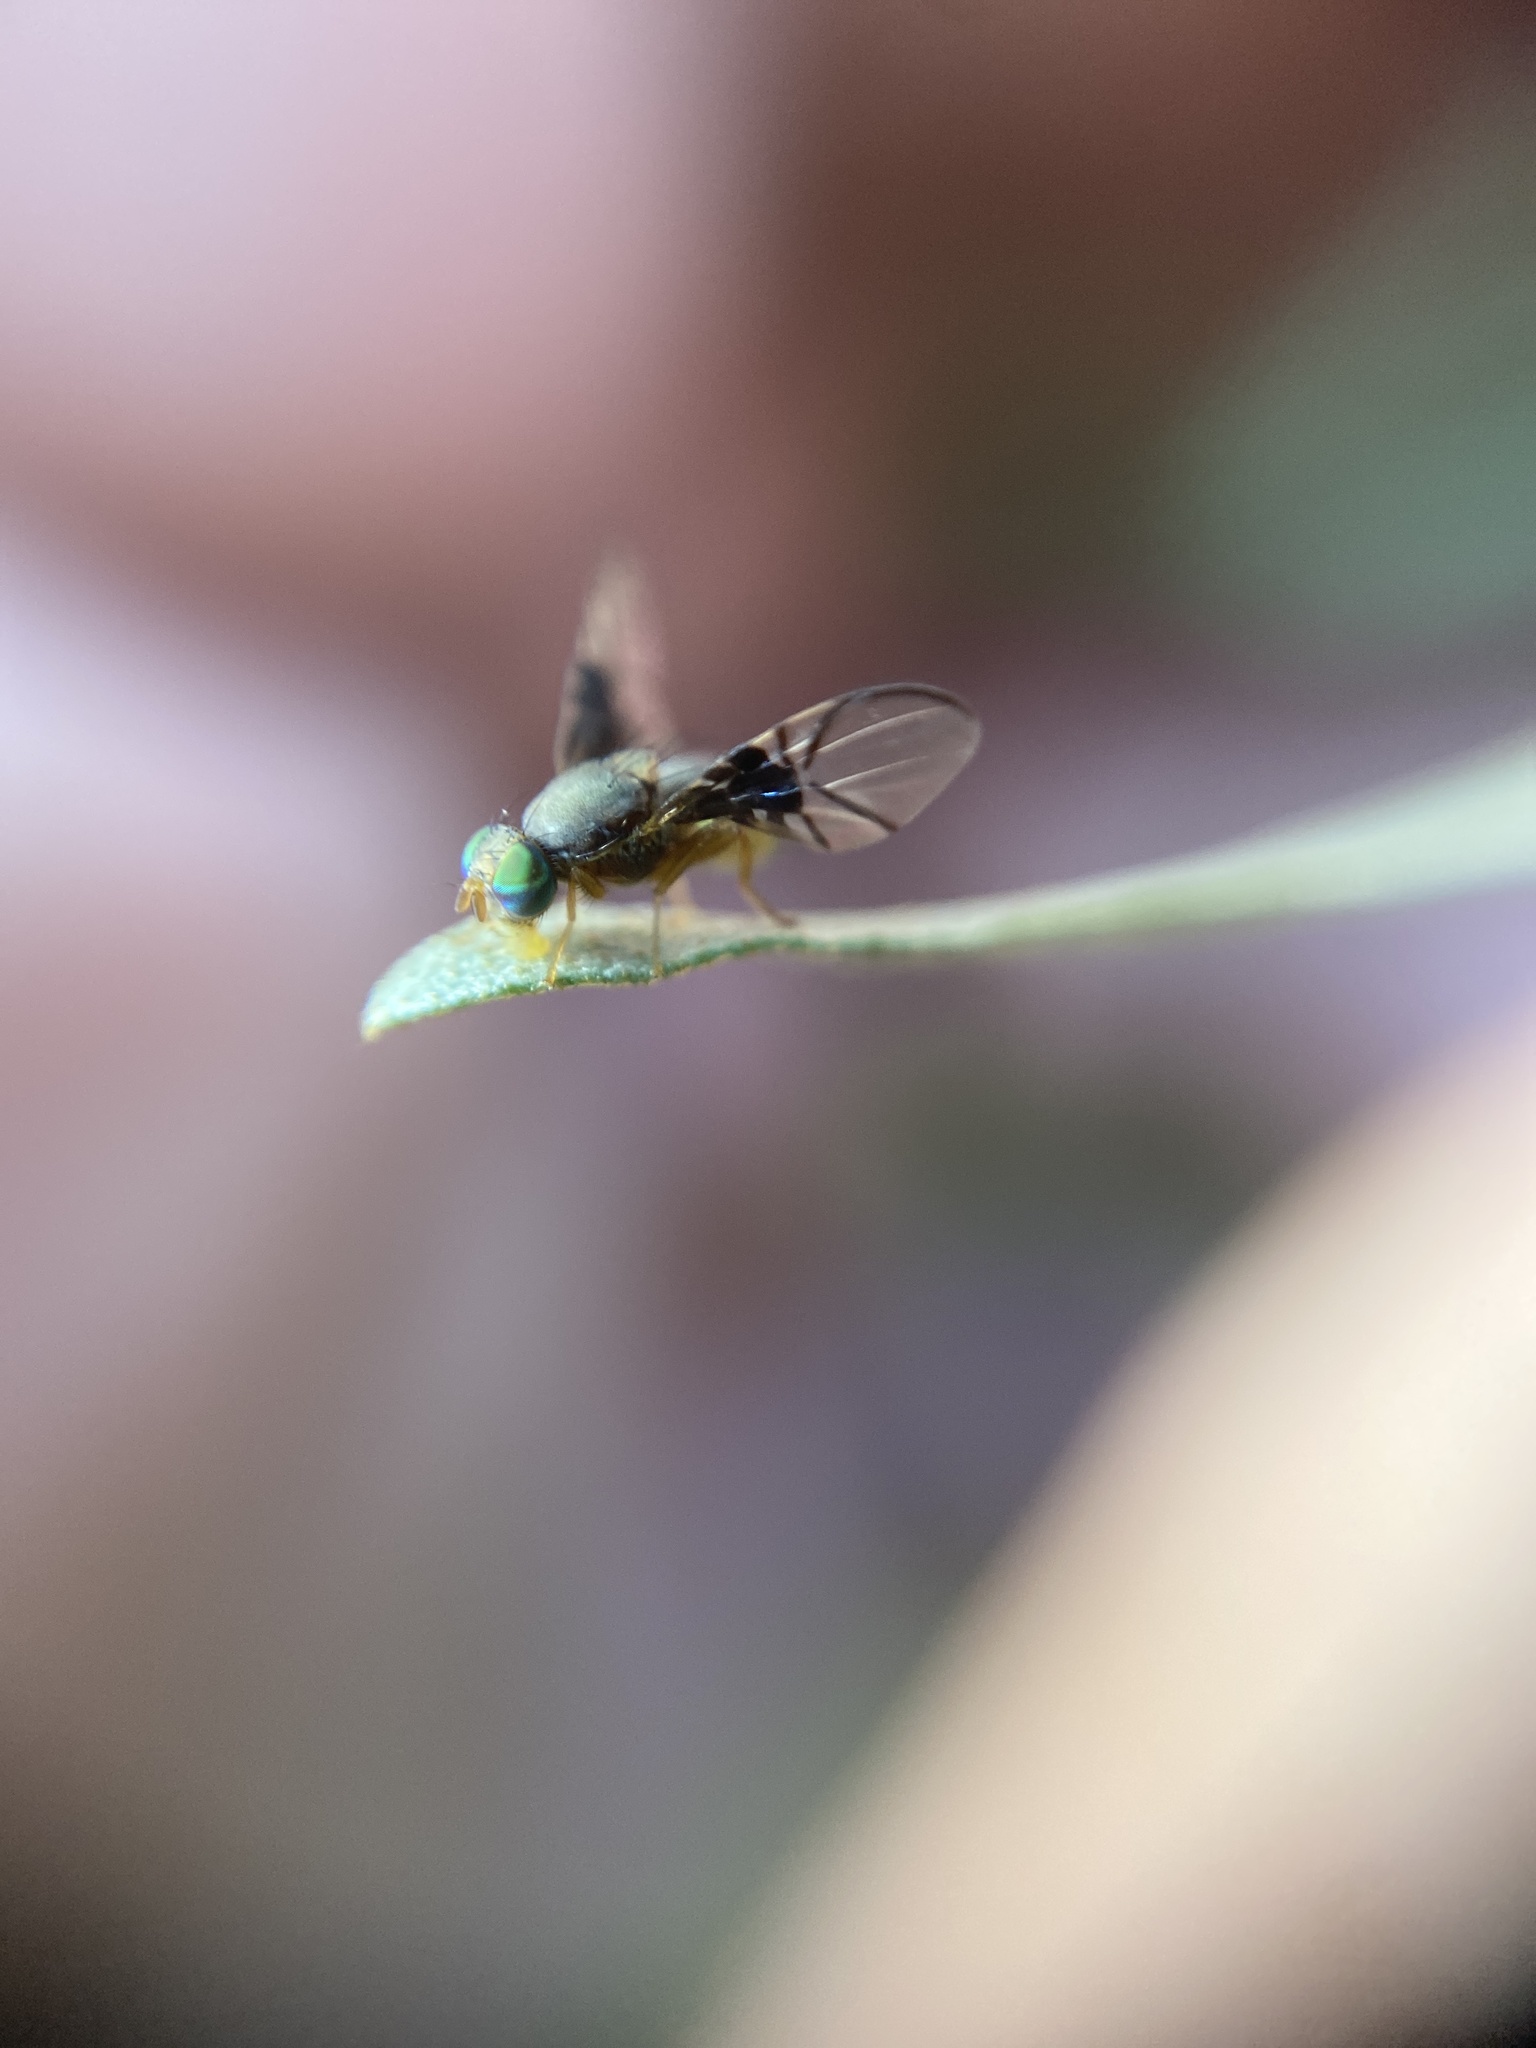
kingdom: Animalia
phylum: Arthropoda
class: Insecta
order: Diptera
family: Tephritidae
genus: Anomoia
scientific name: Anomoia purmunda
